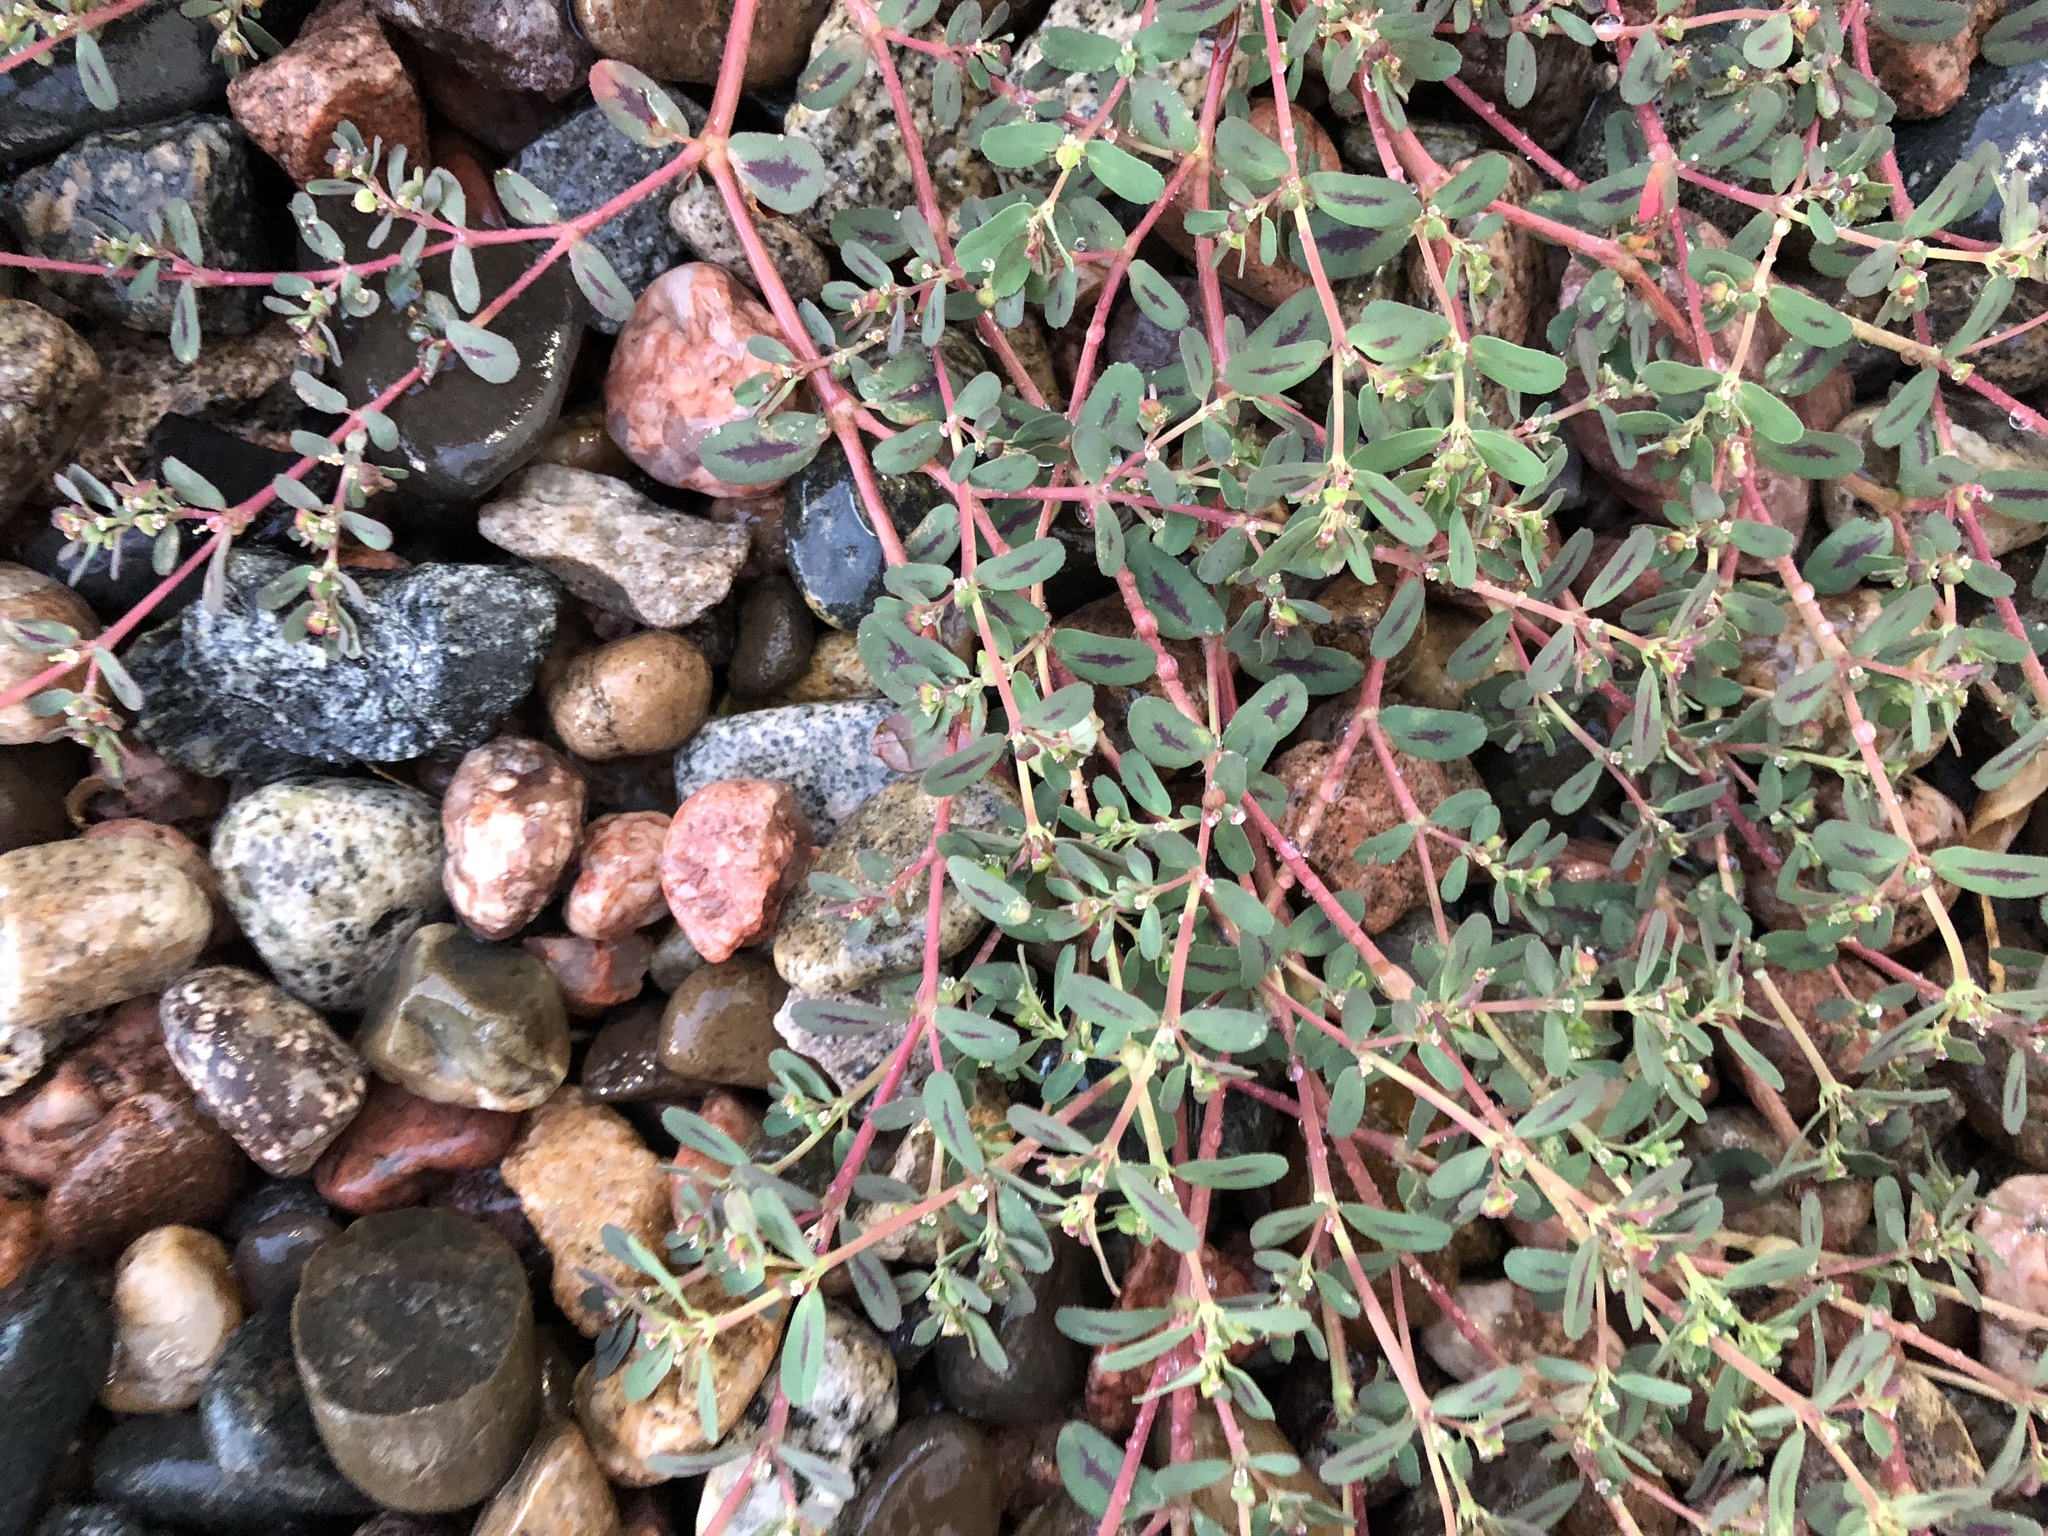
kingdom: Plantae
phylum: Tracheophyta
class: Magnoliopsida
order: Malpighiales
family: Euphorbiaceae
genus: Euphorbia
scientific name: Euphorbia serpillifolia
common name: Thyme-leaf spurge
